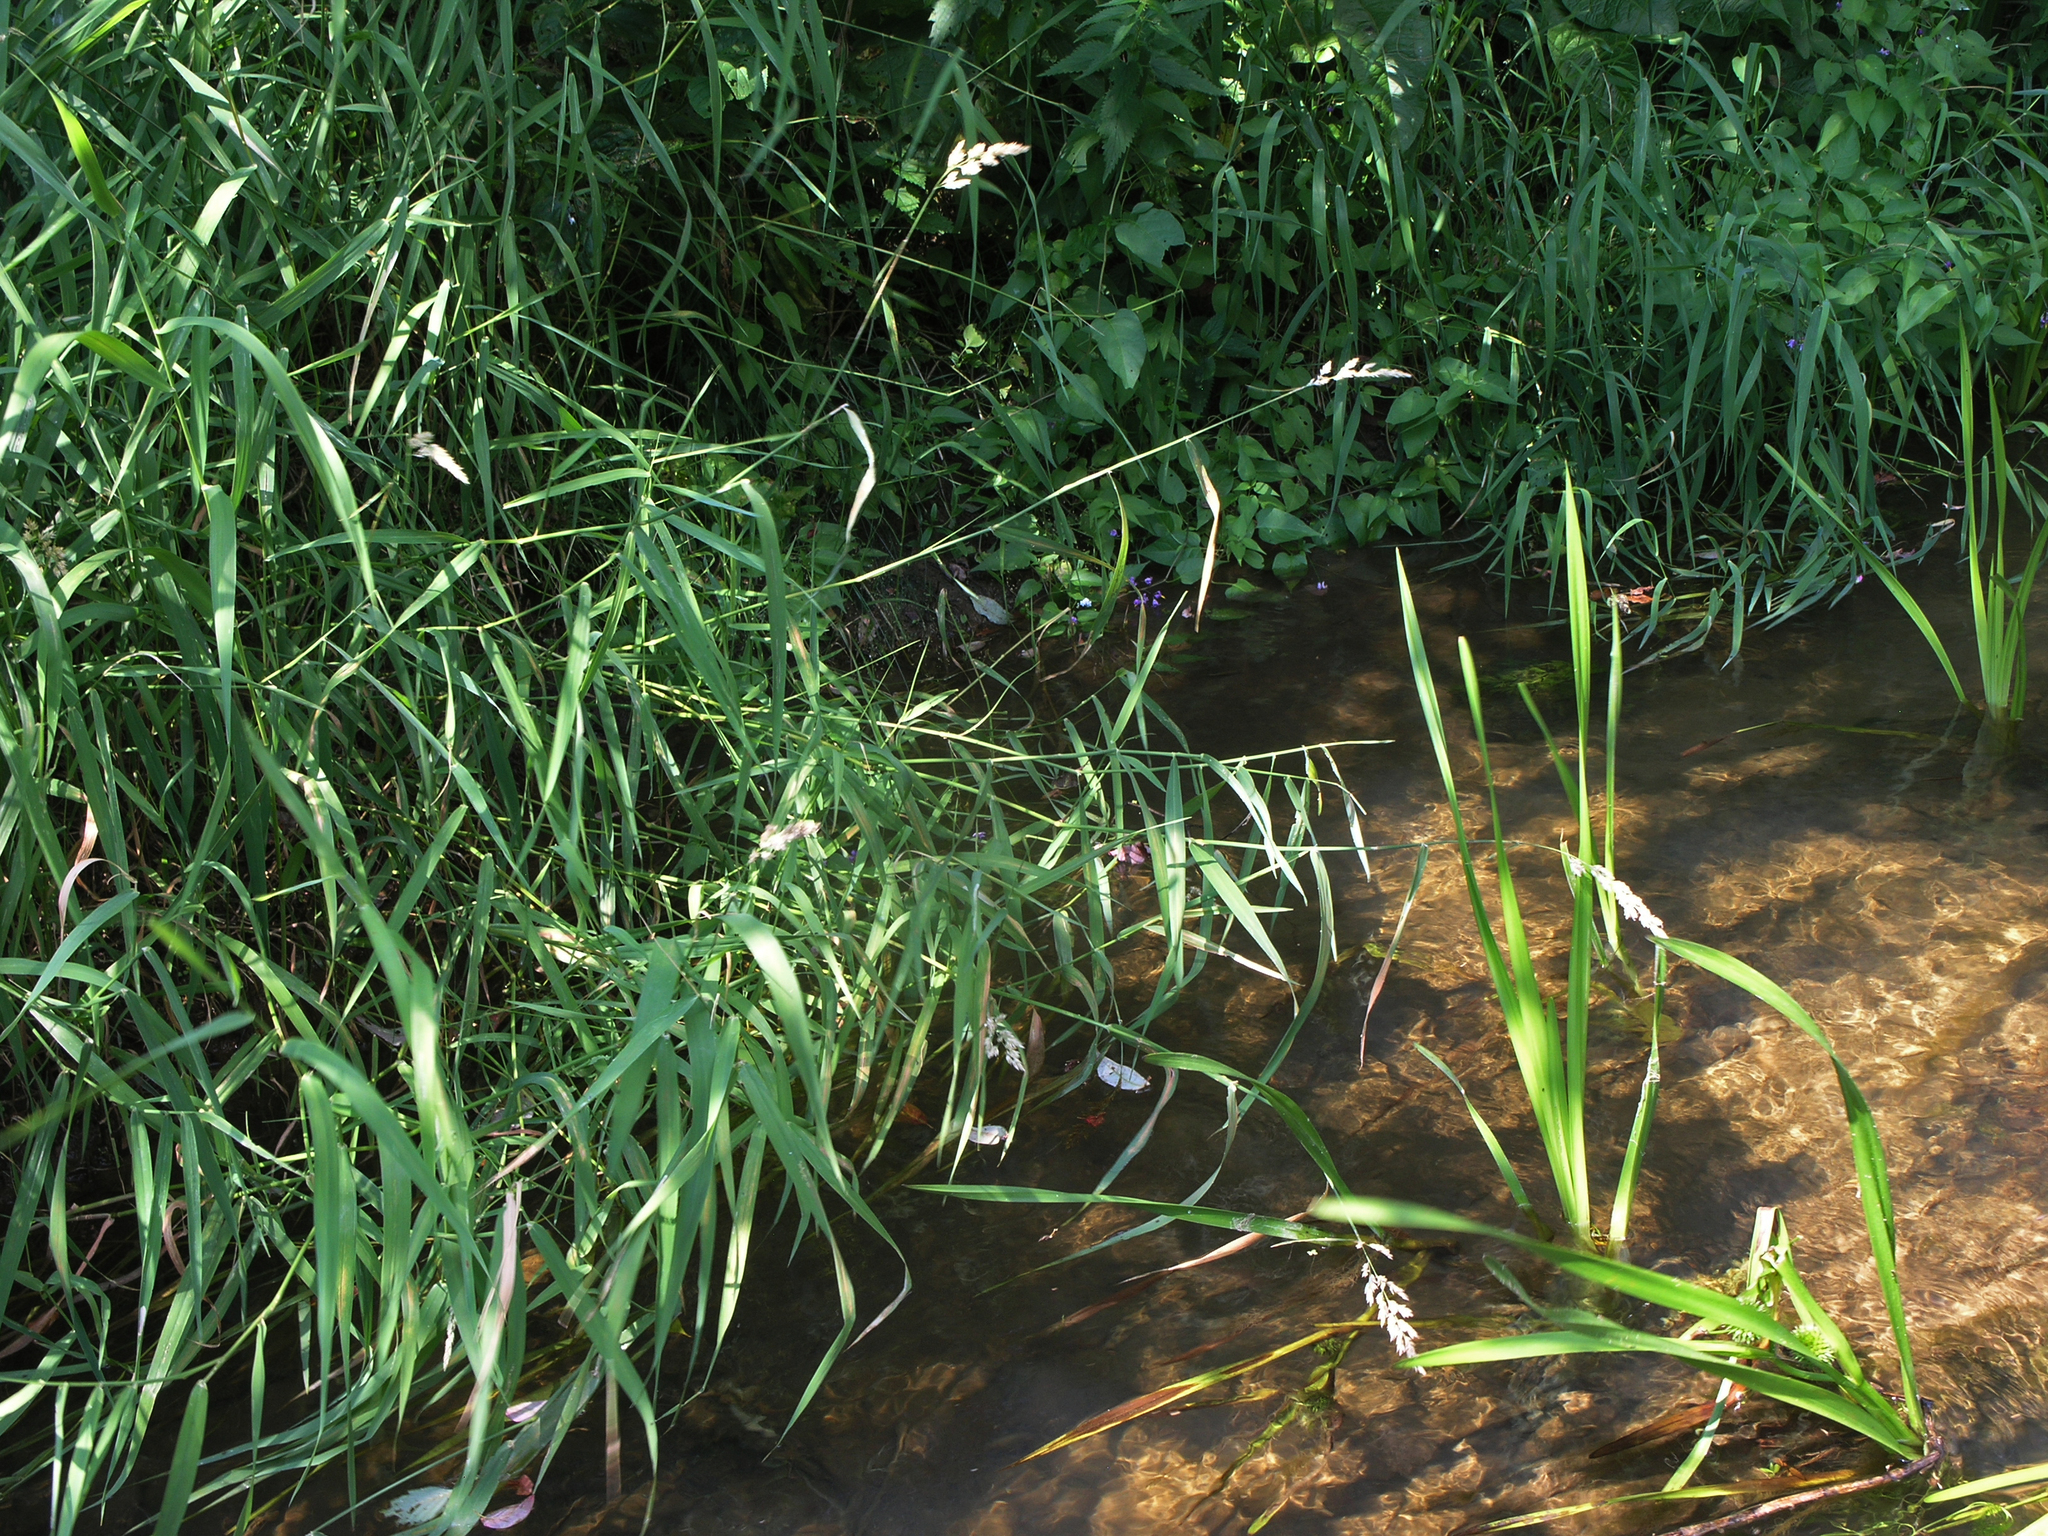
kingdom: Plantae
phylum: Tracheophyta
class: Liliopsida
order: Poales
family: Poaceae
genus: Phalaris
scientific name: Phalaris arundinacea
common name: Reed canary-grass
